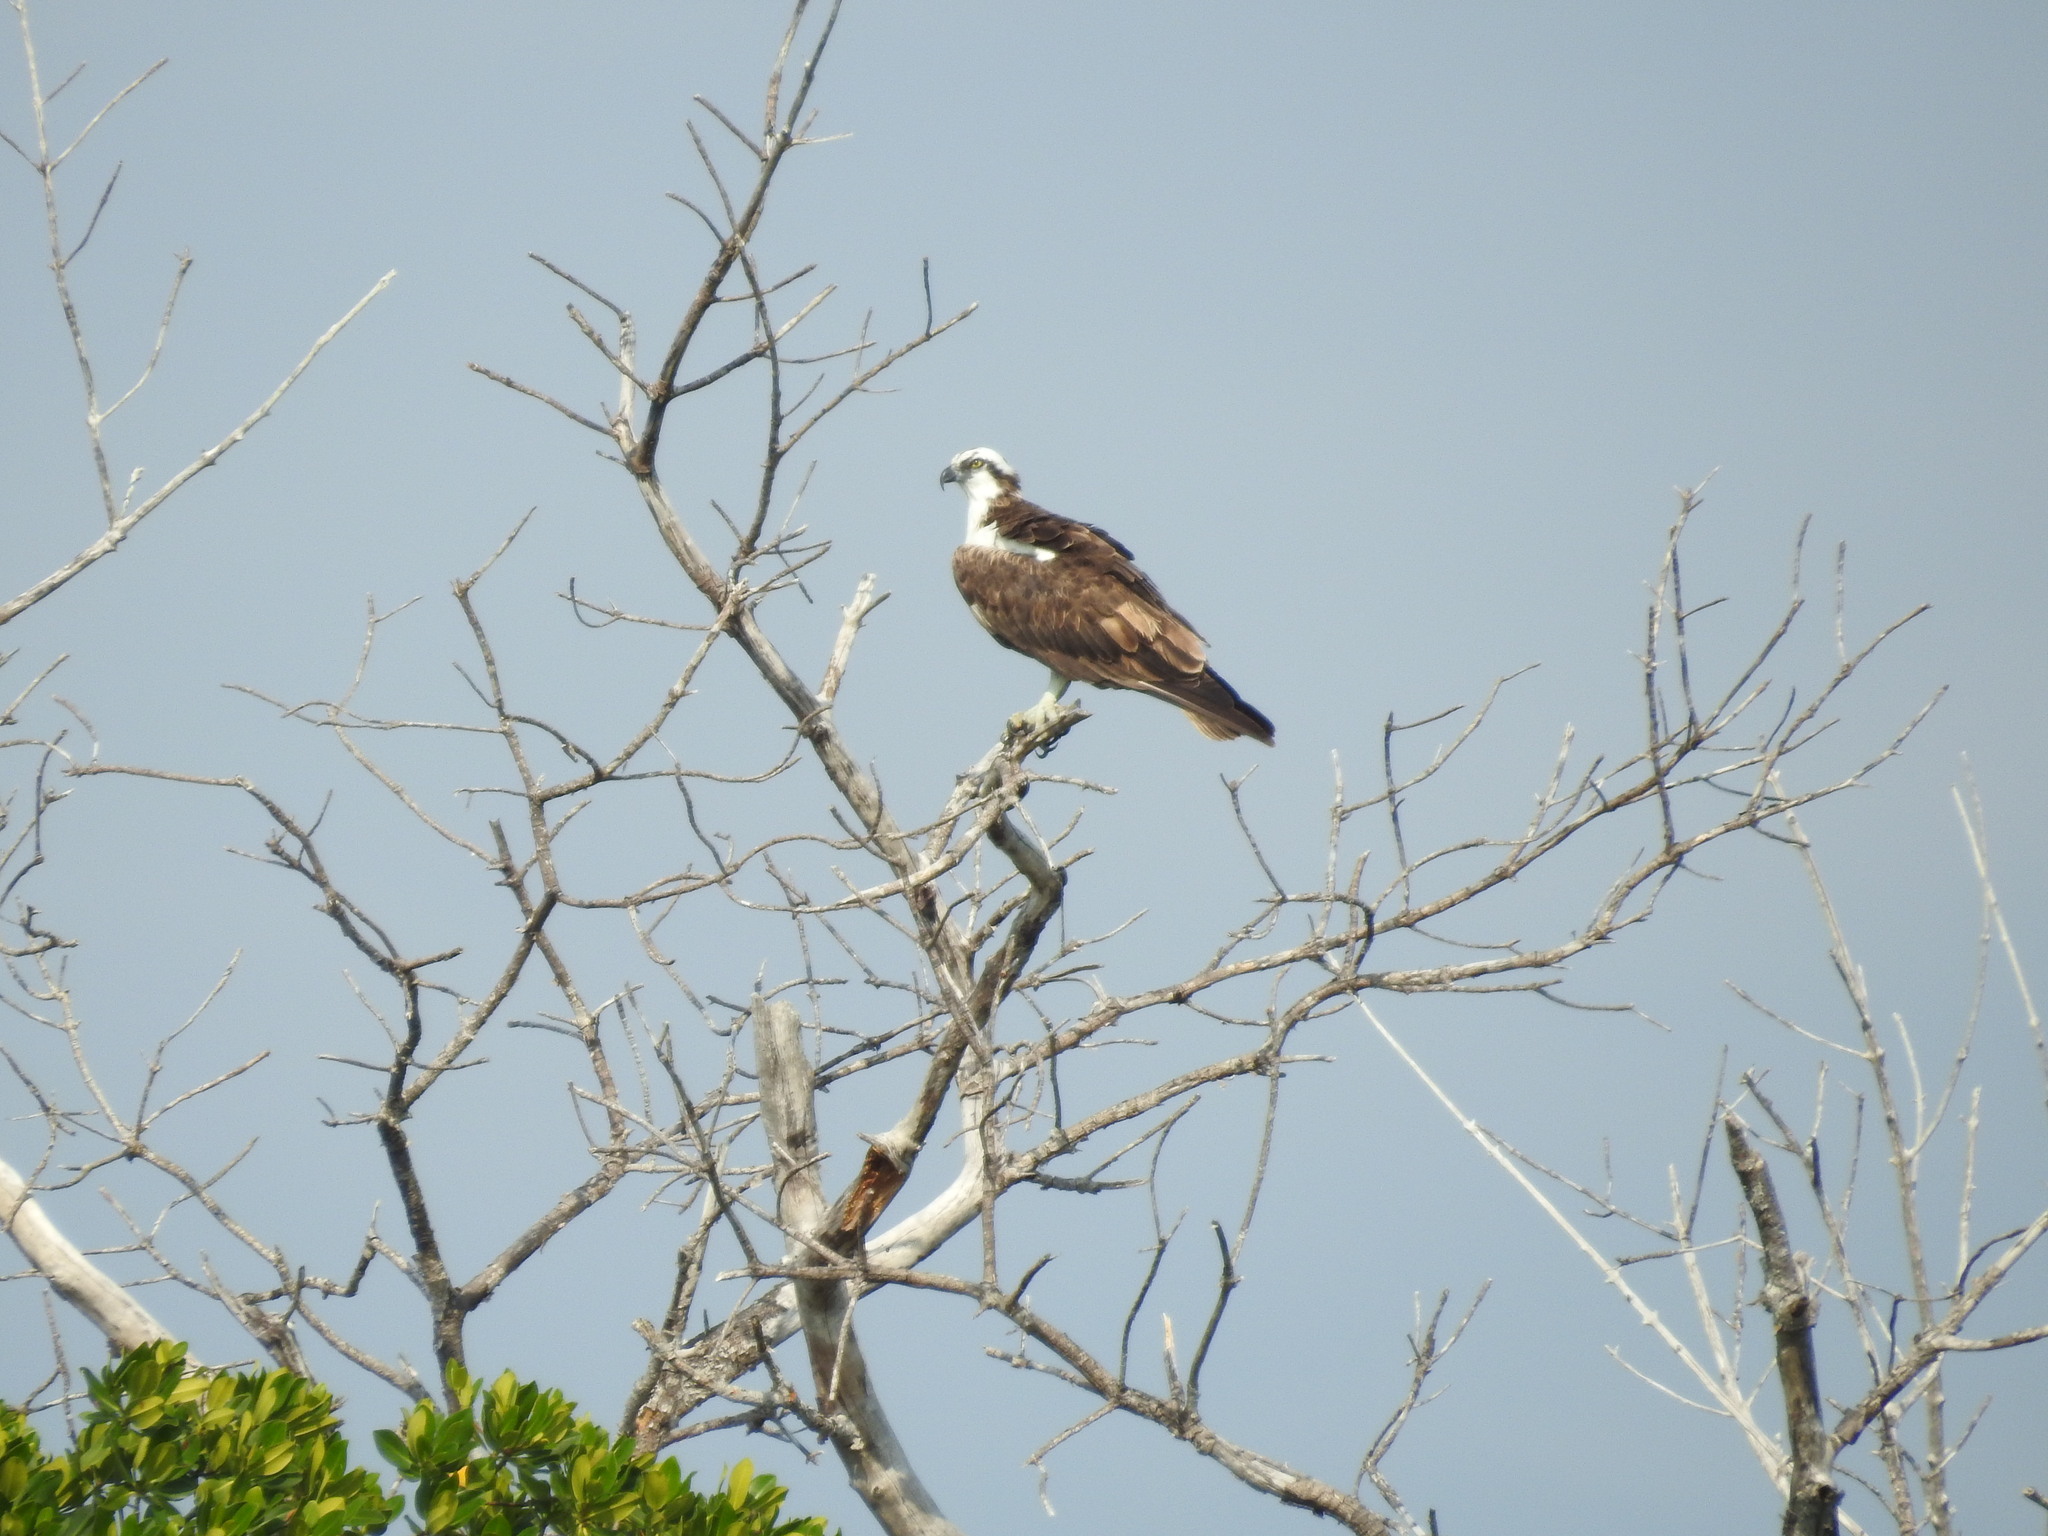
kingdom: Animalia
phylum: Chordata
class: Aves
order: Accipitriformes
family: Pandionidae
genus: Pandion
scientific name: Pandion haliaetus
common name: Osprey
